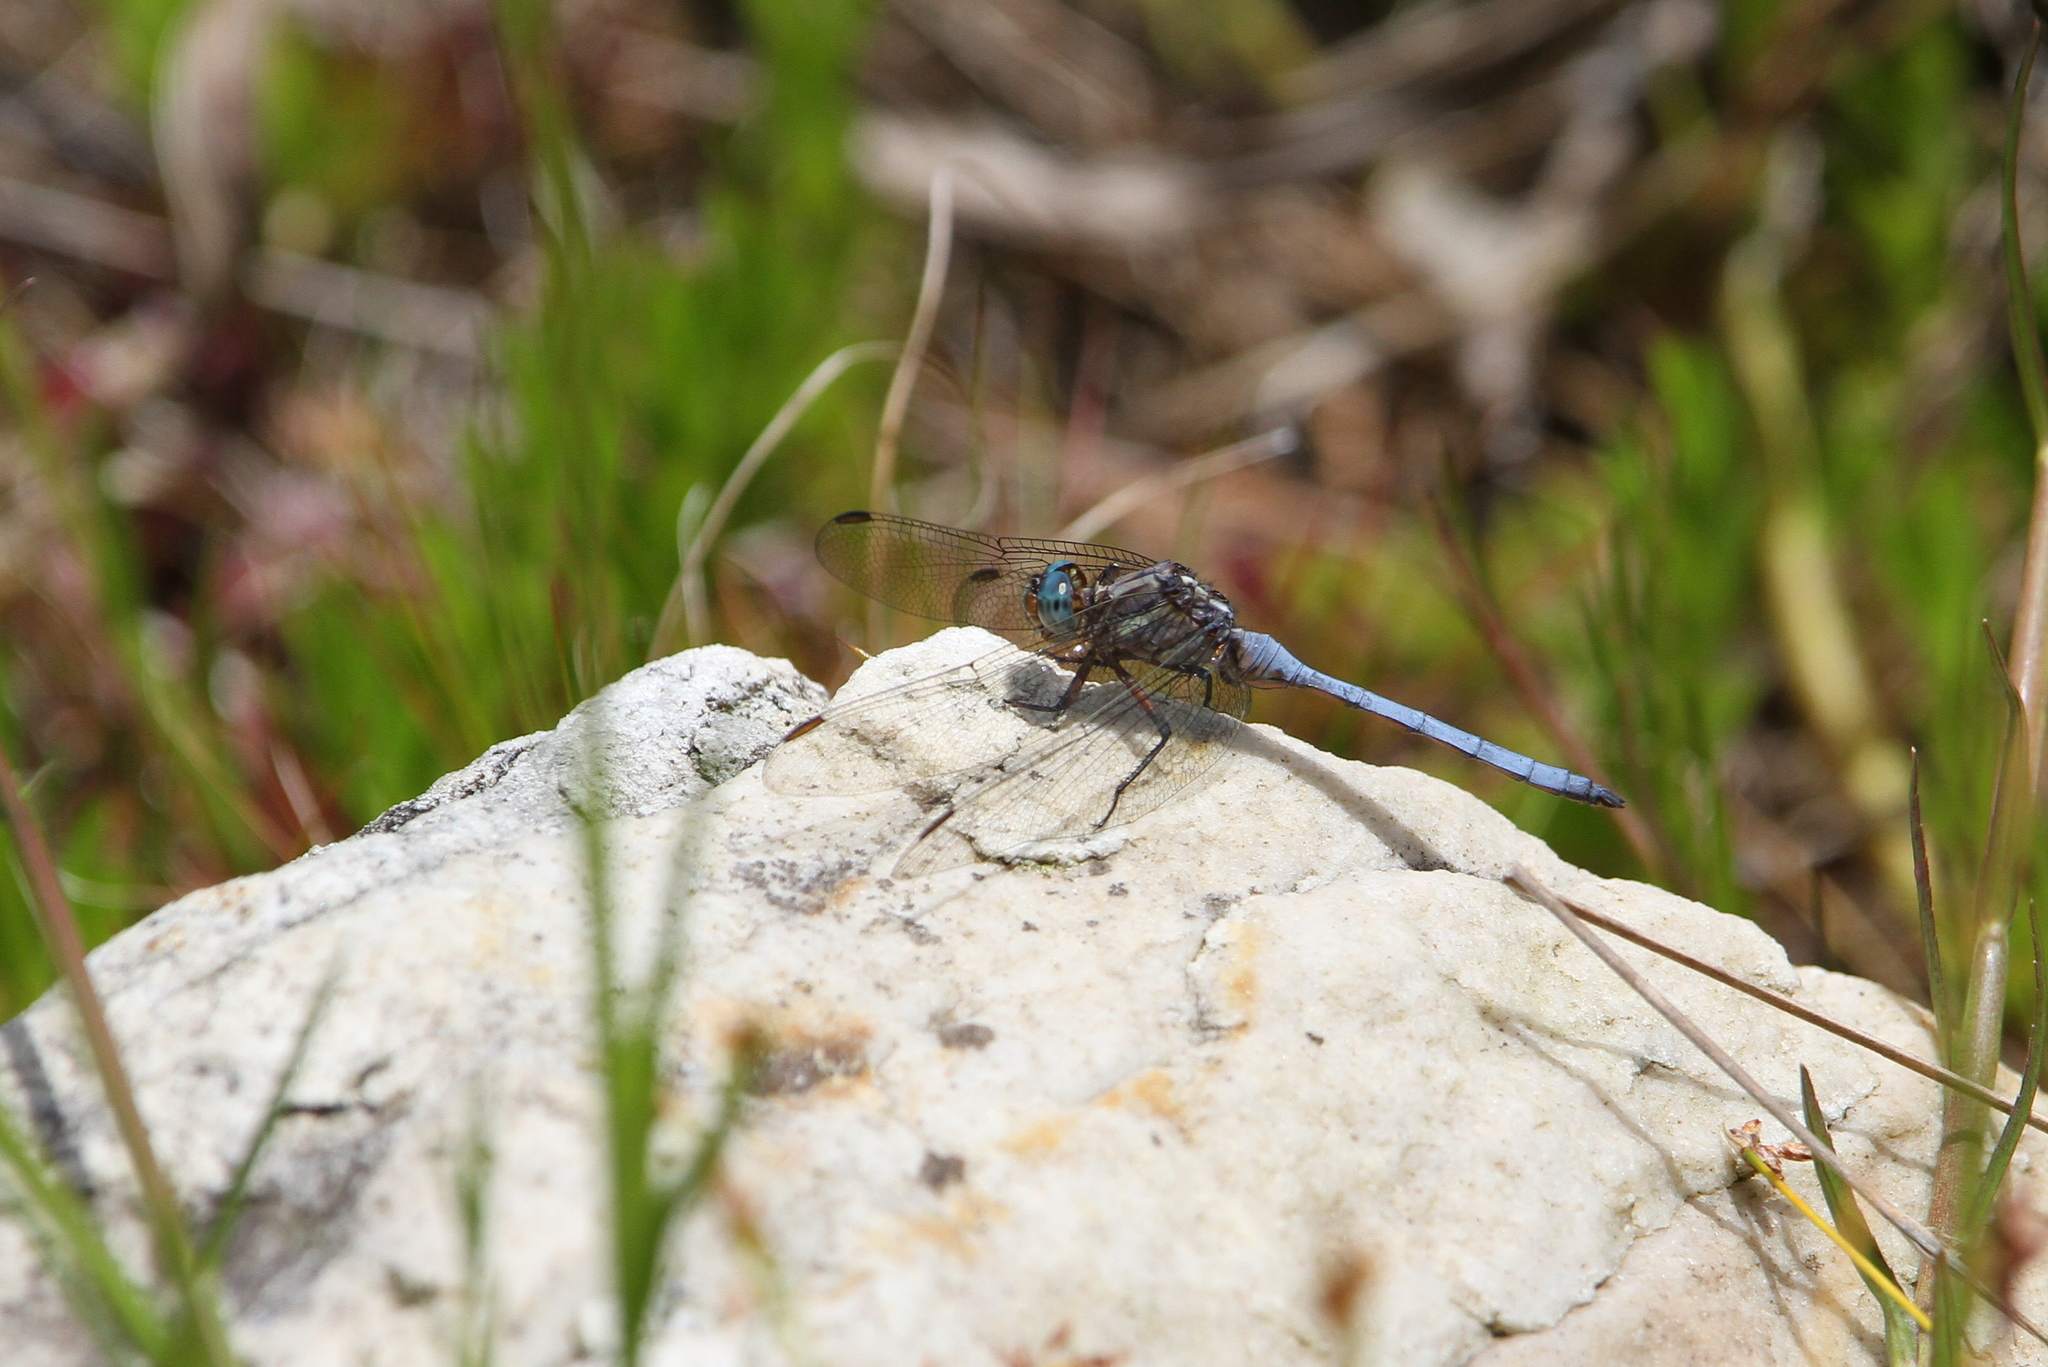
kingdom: Animalia
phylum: Arthropoda
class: Insecta
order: Odonata
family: Libellulidae
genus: Orthetrum
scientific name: Orthetrum julia
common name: Julia skimmer
